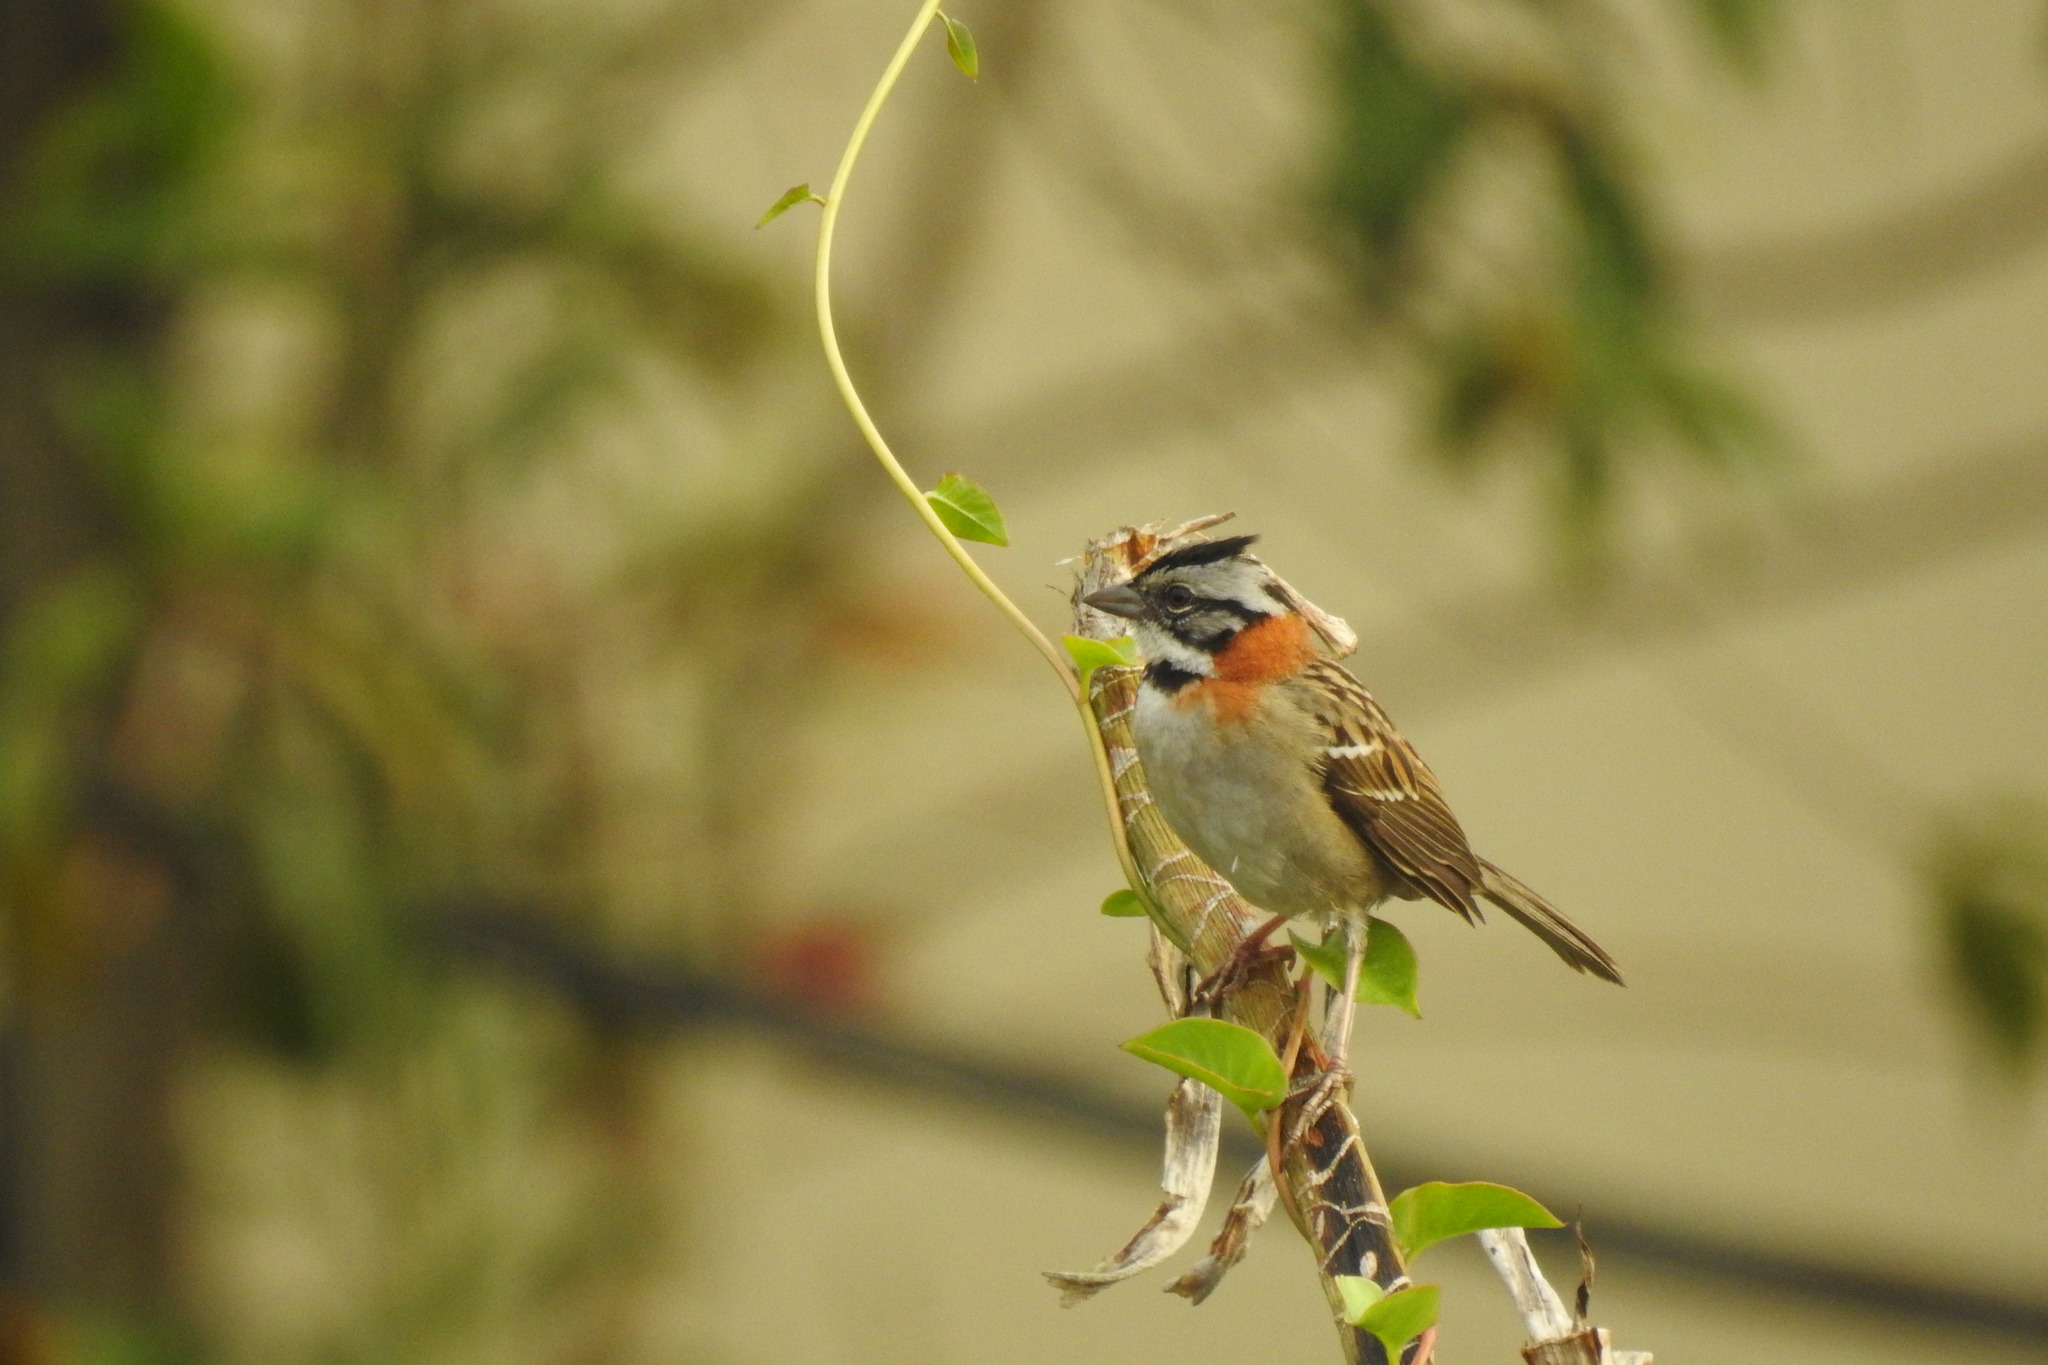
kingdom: Animalia
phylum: Chordata
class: Aves
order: Passeriformes
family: Passerellidae
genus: Zonotrichia
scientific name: Zonotrichia capensis
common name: Rufous-collared sparrow
